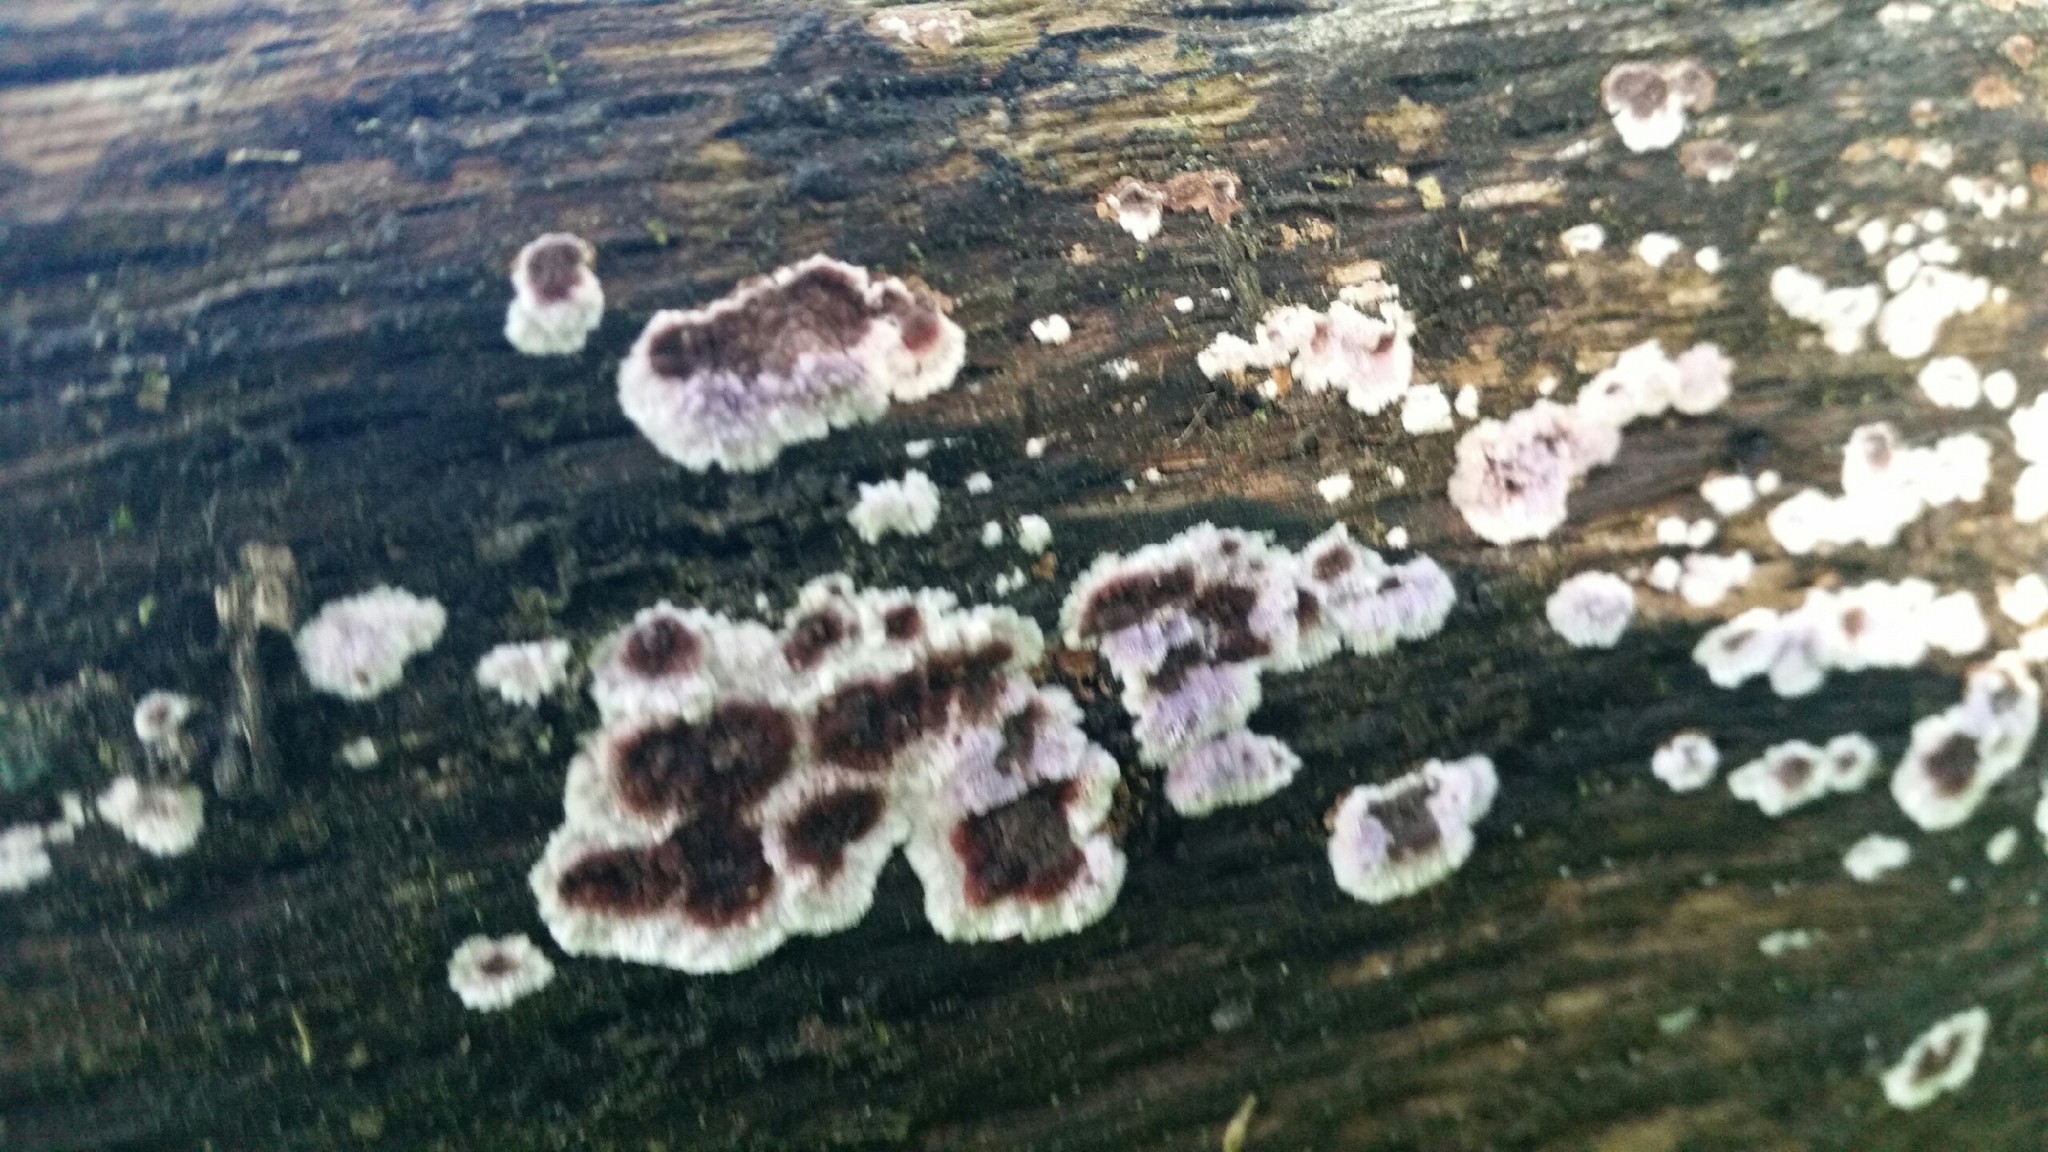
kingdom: Fungi
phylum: Basidiomycota
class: Agaricomycetes
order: Corticiales
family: Punctulariaceae
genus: Punctularia
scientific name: Punctularia atropurpurascens
